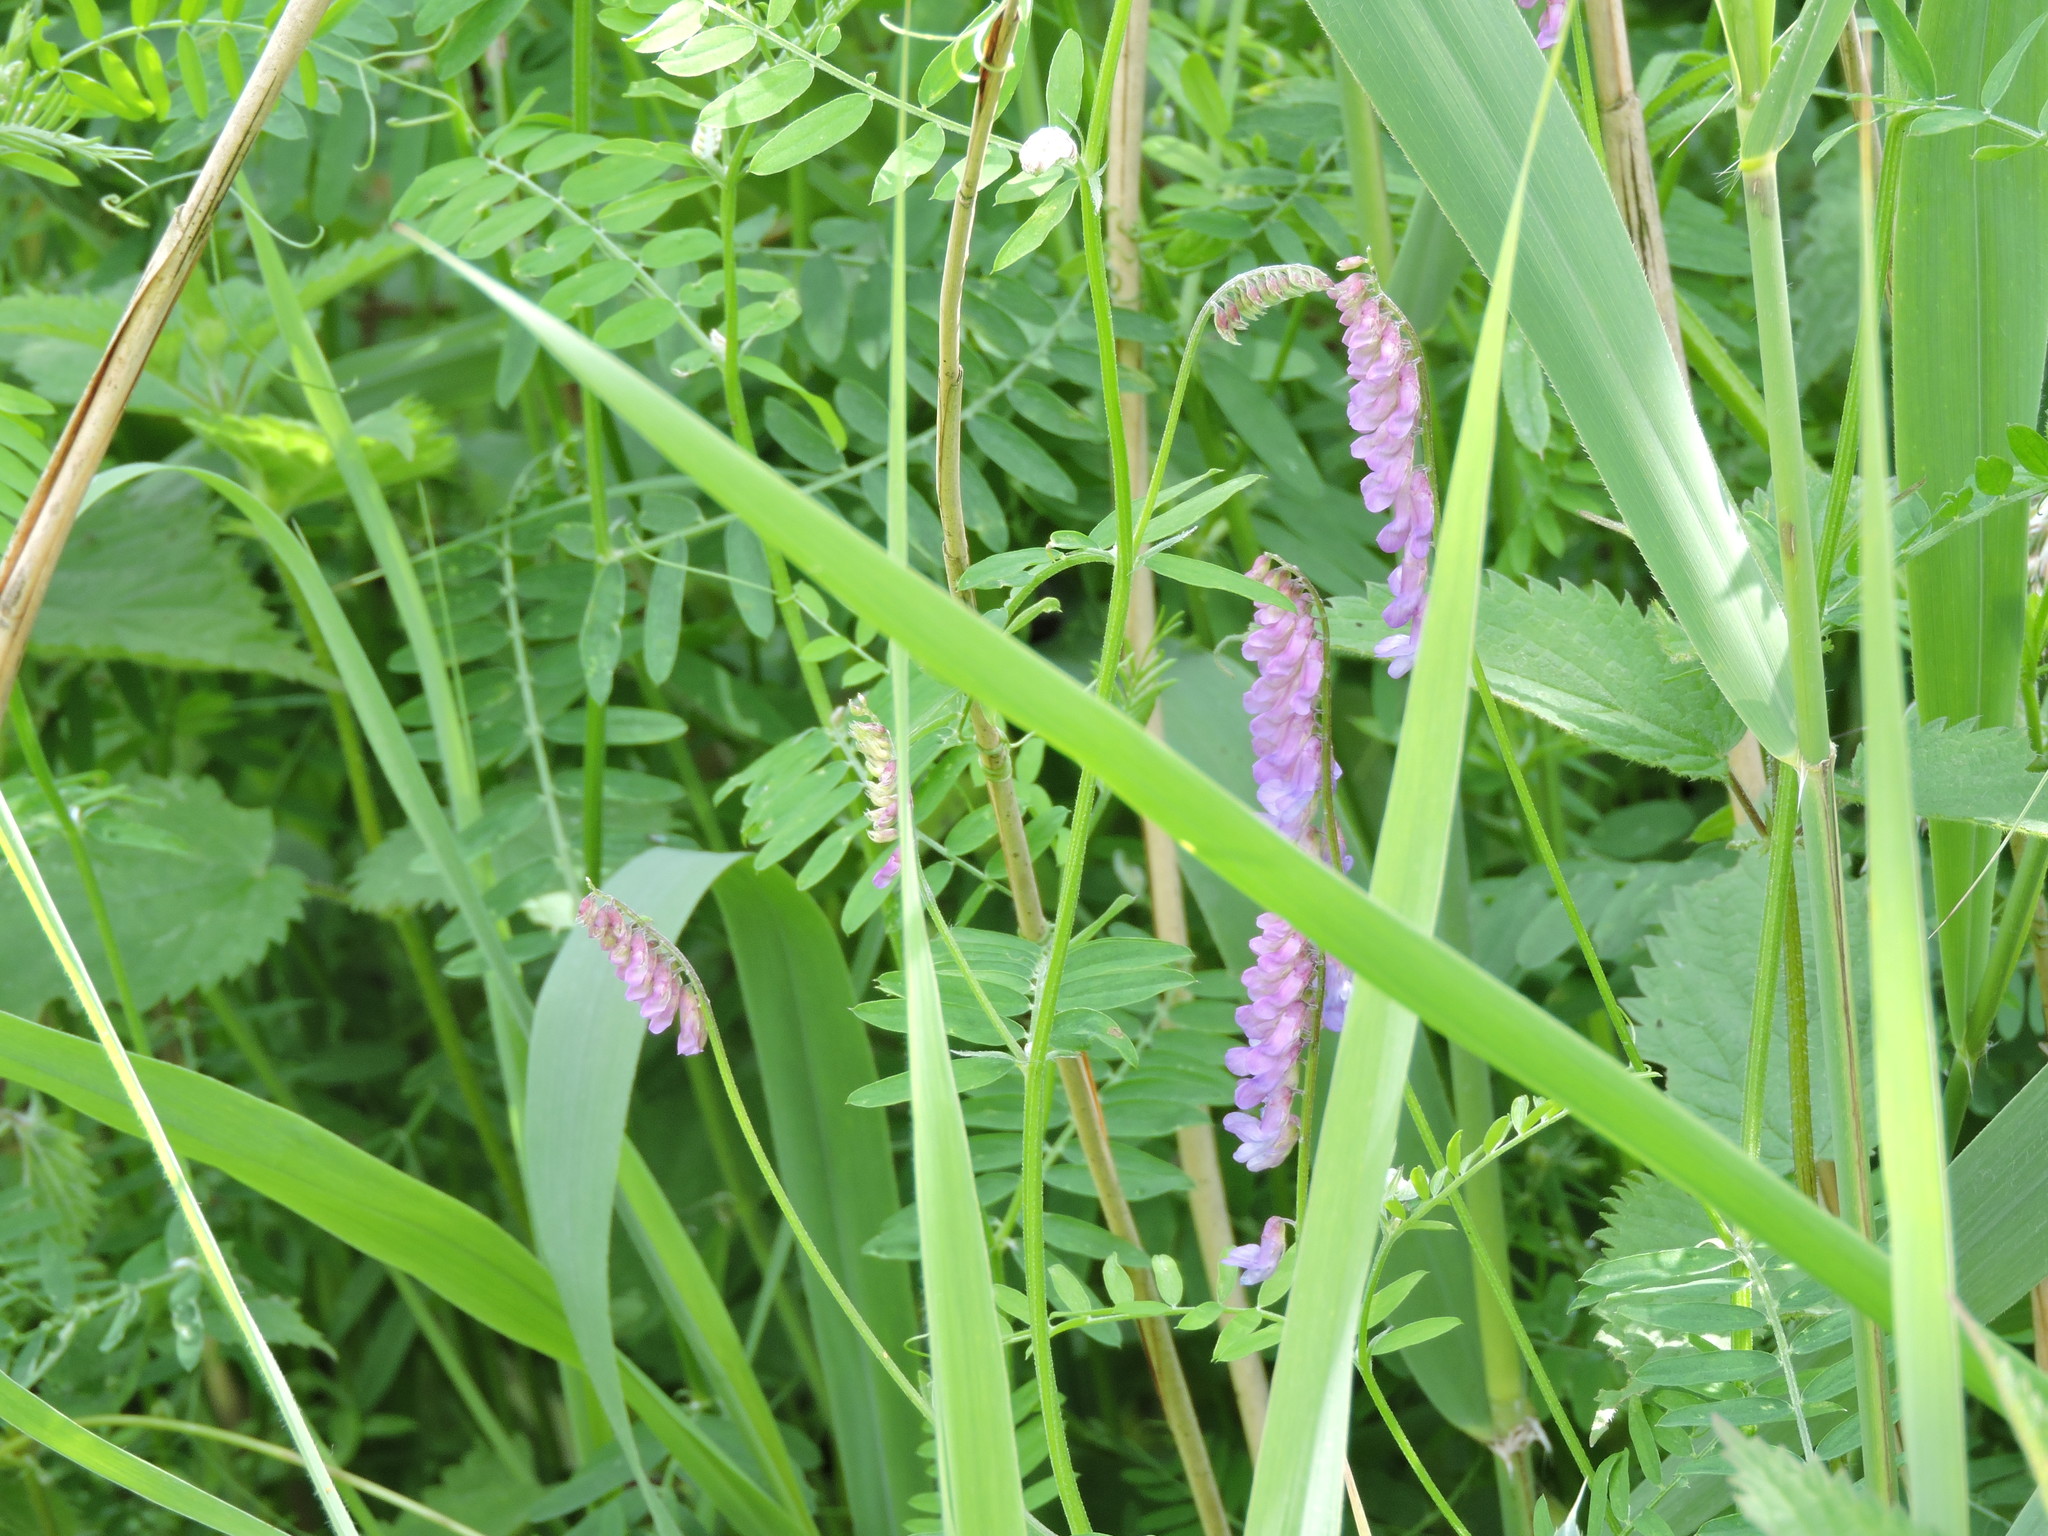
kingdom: Plantae
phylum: Tracheophyta
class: Magnoliopsida
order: Fabales
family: Fabaceae
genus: Vicia
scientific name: Vicia cracca
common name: Bird vetch
